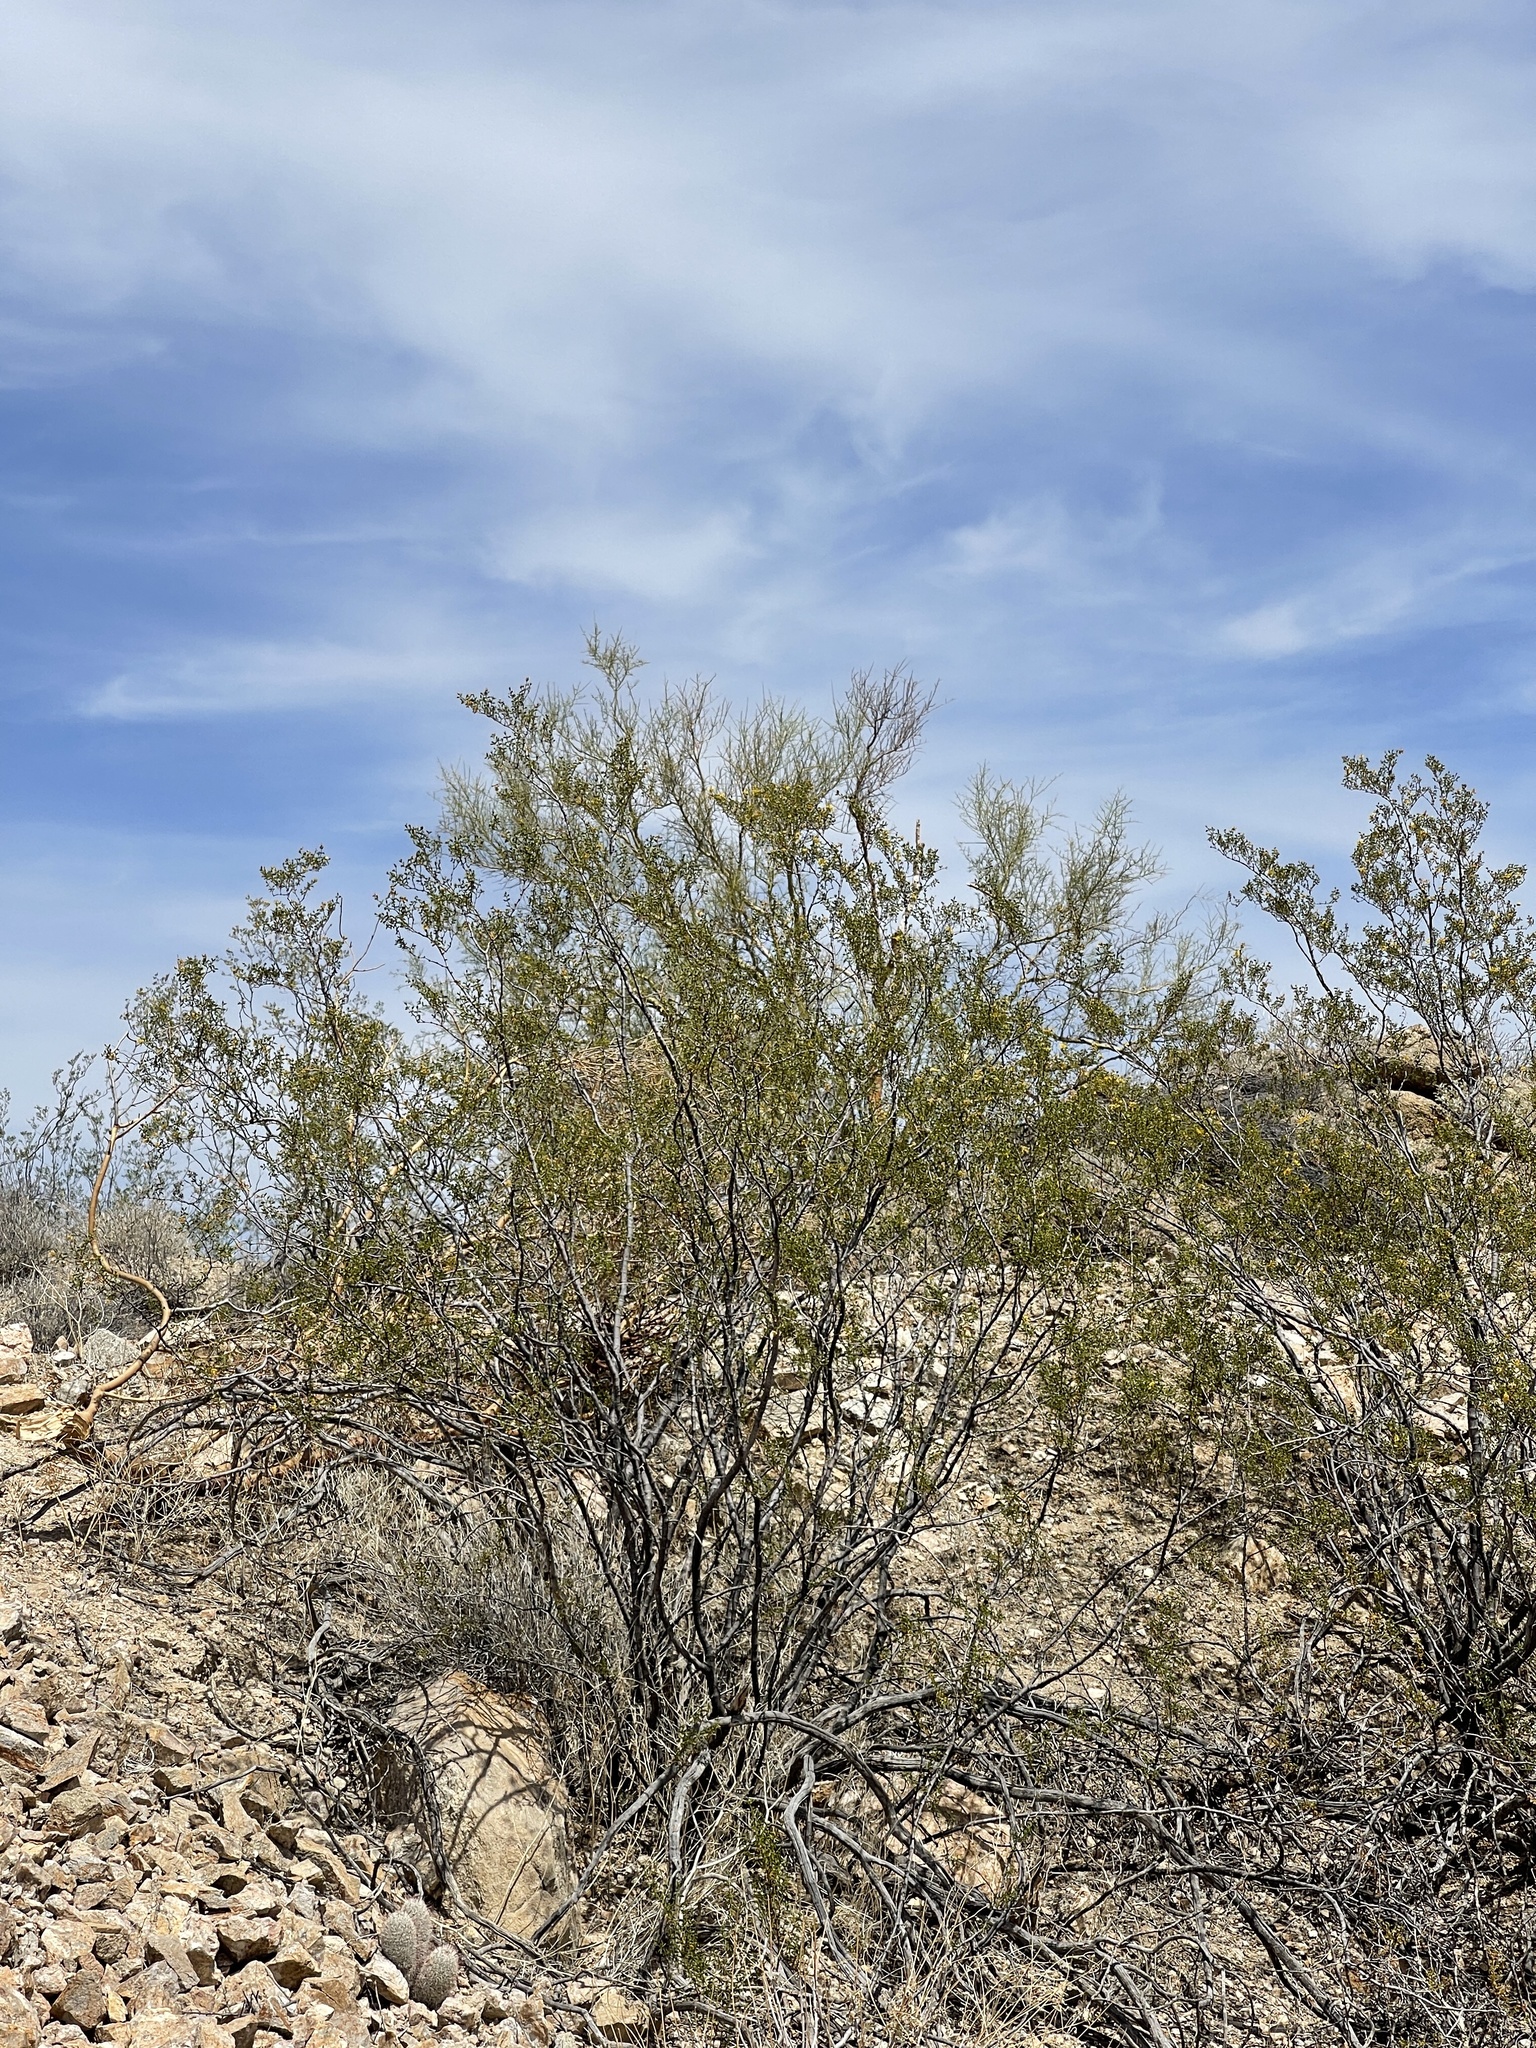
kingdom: Plantae
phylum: Tracheophyta
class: Magnoliopsida
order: Zygophyllales
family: Zygophyllaceae
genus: Larrea
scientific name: Larrea tridentata
